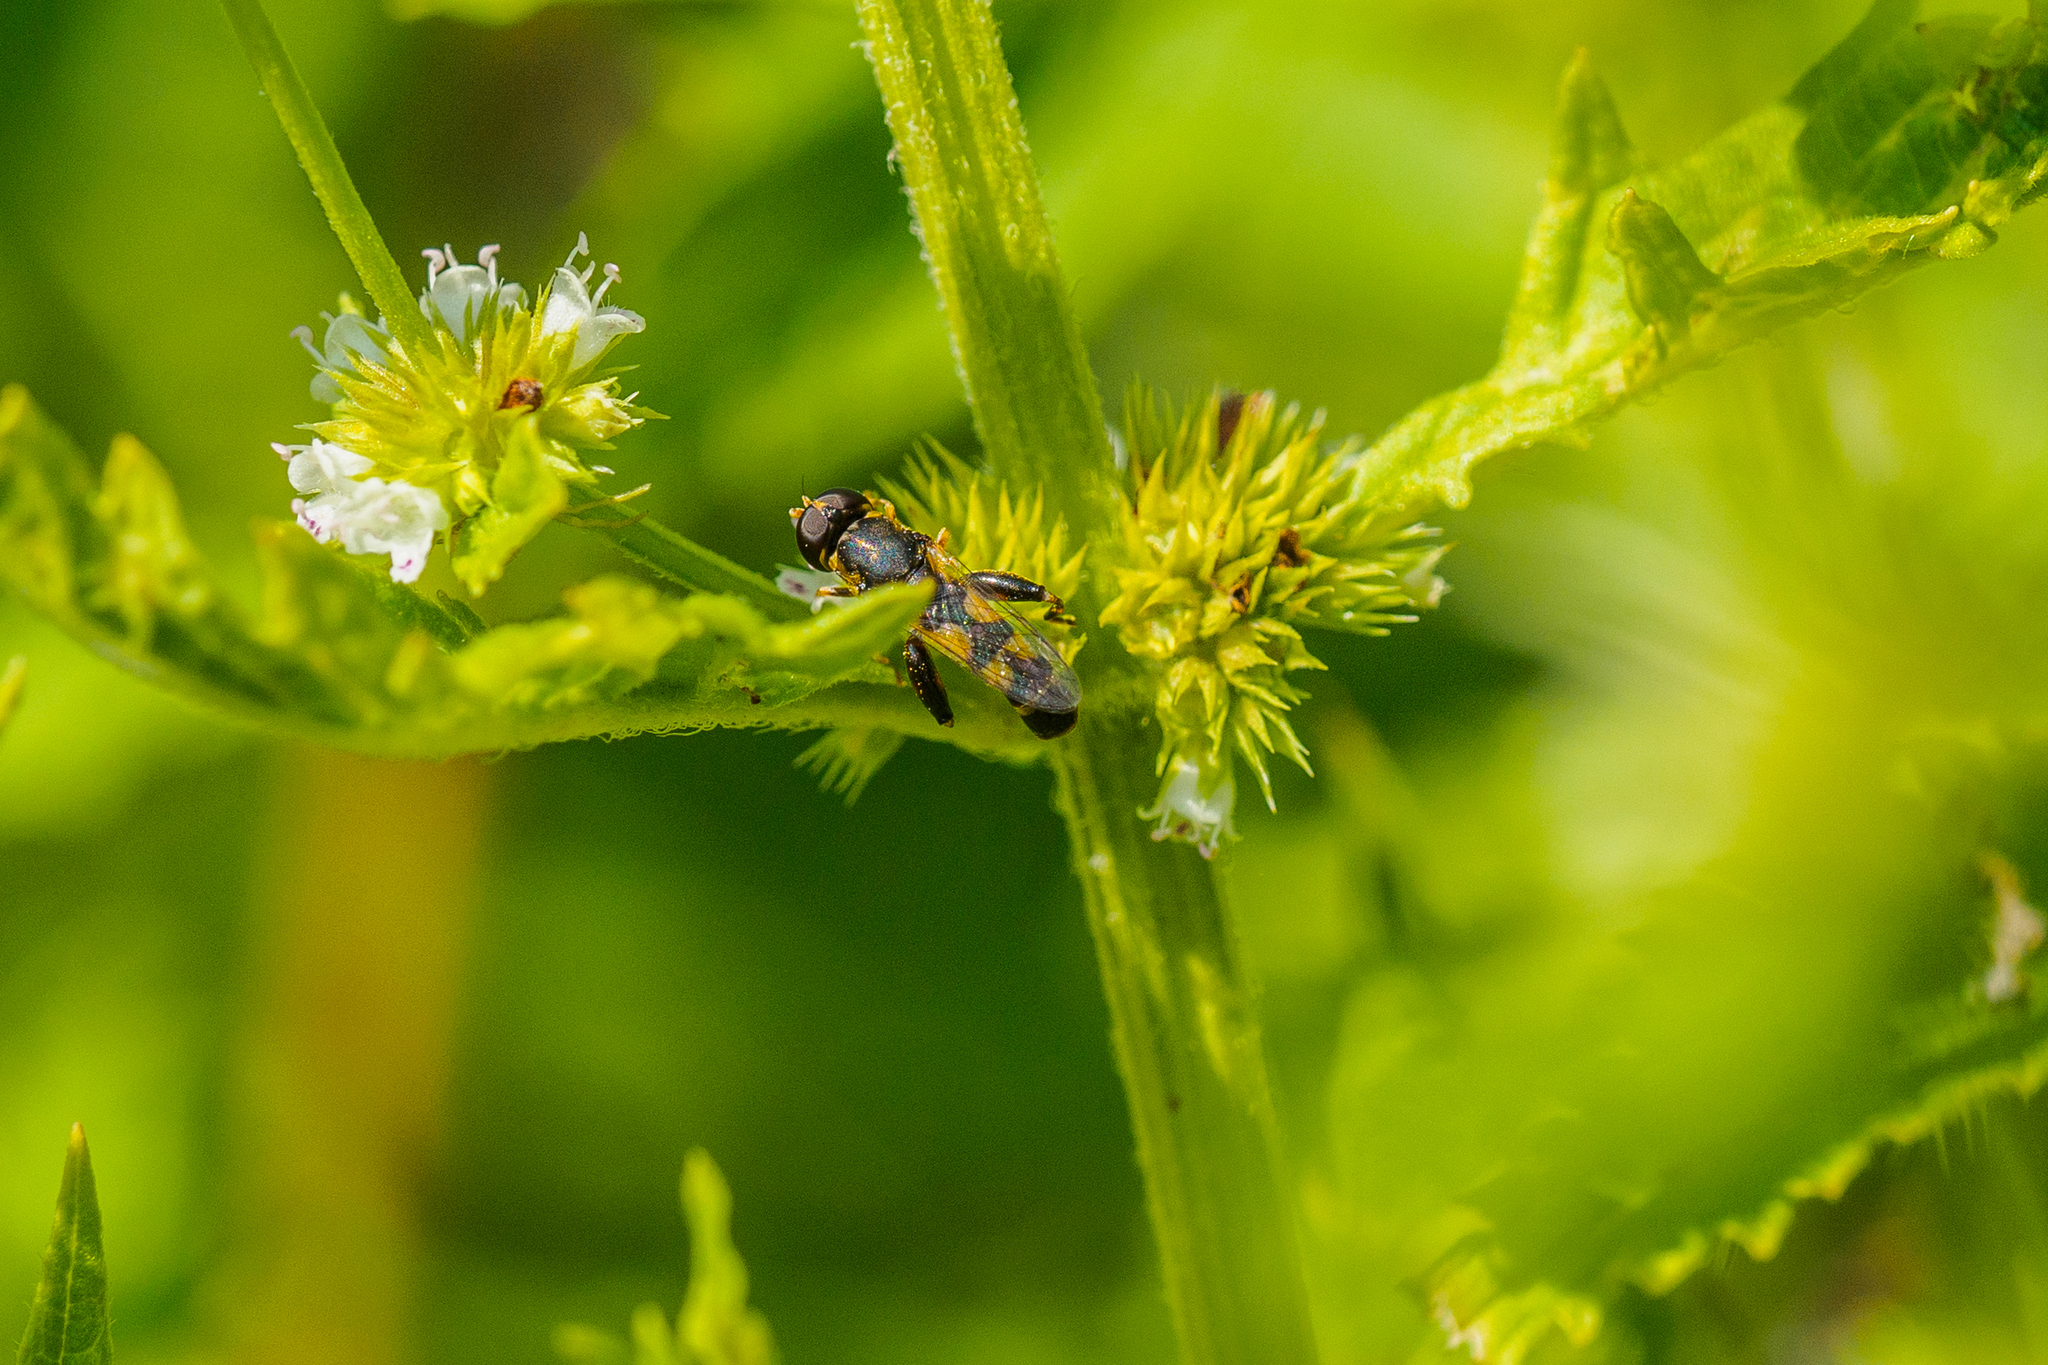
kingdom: Animalia
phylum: Arthropoda
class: Insecta
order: Diptera
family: Syrphidae
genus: Syritta
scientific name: Syritta pipiens
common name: Hover fly
